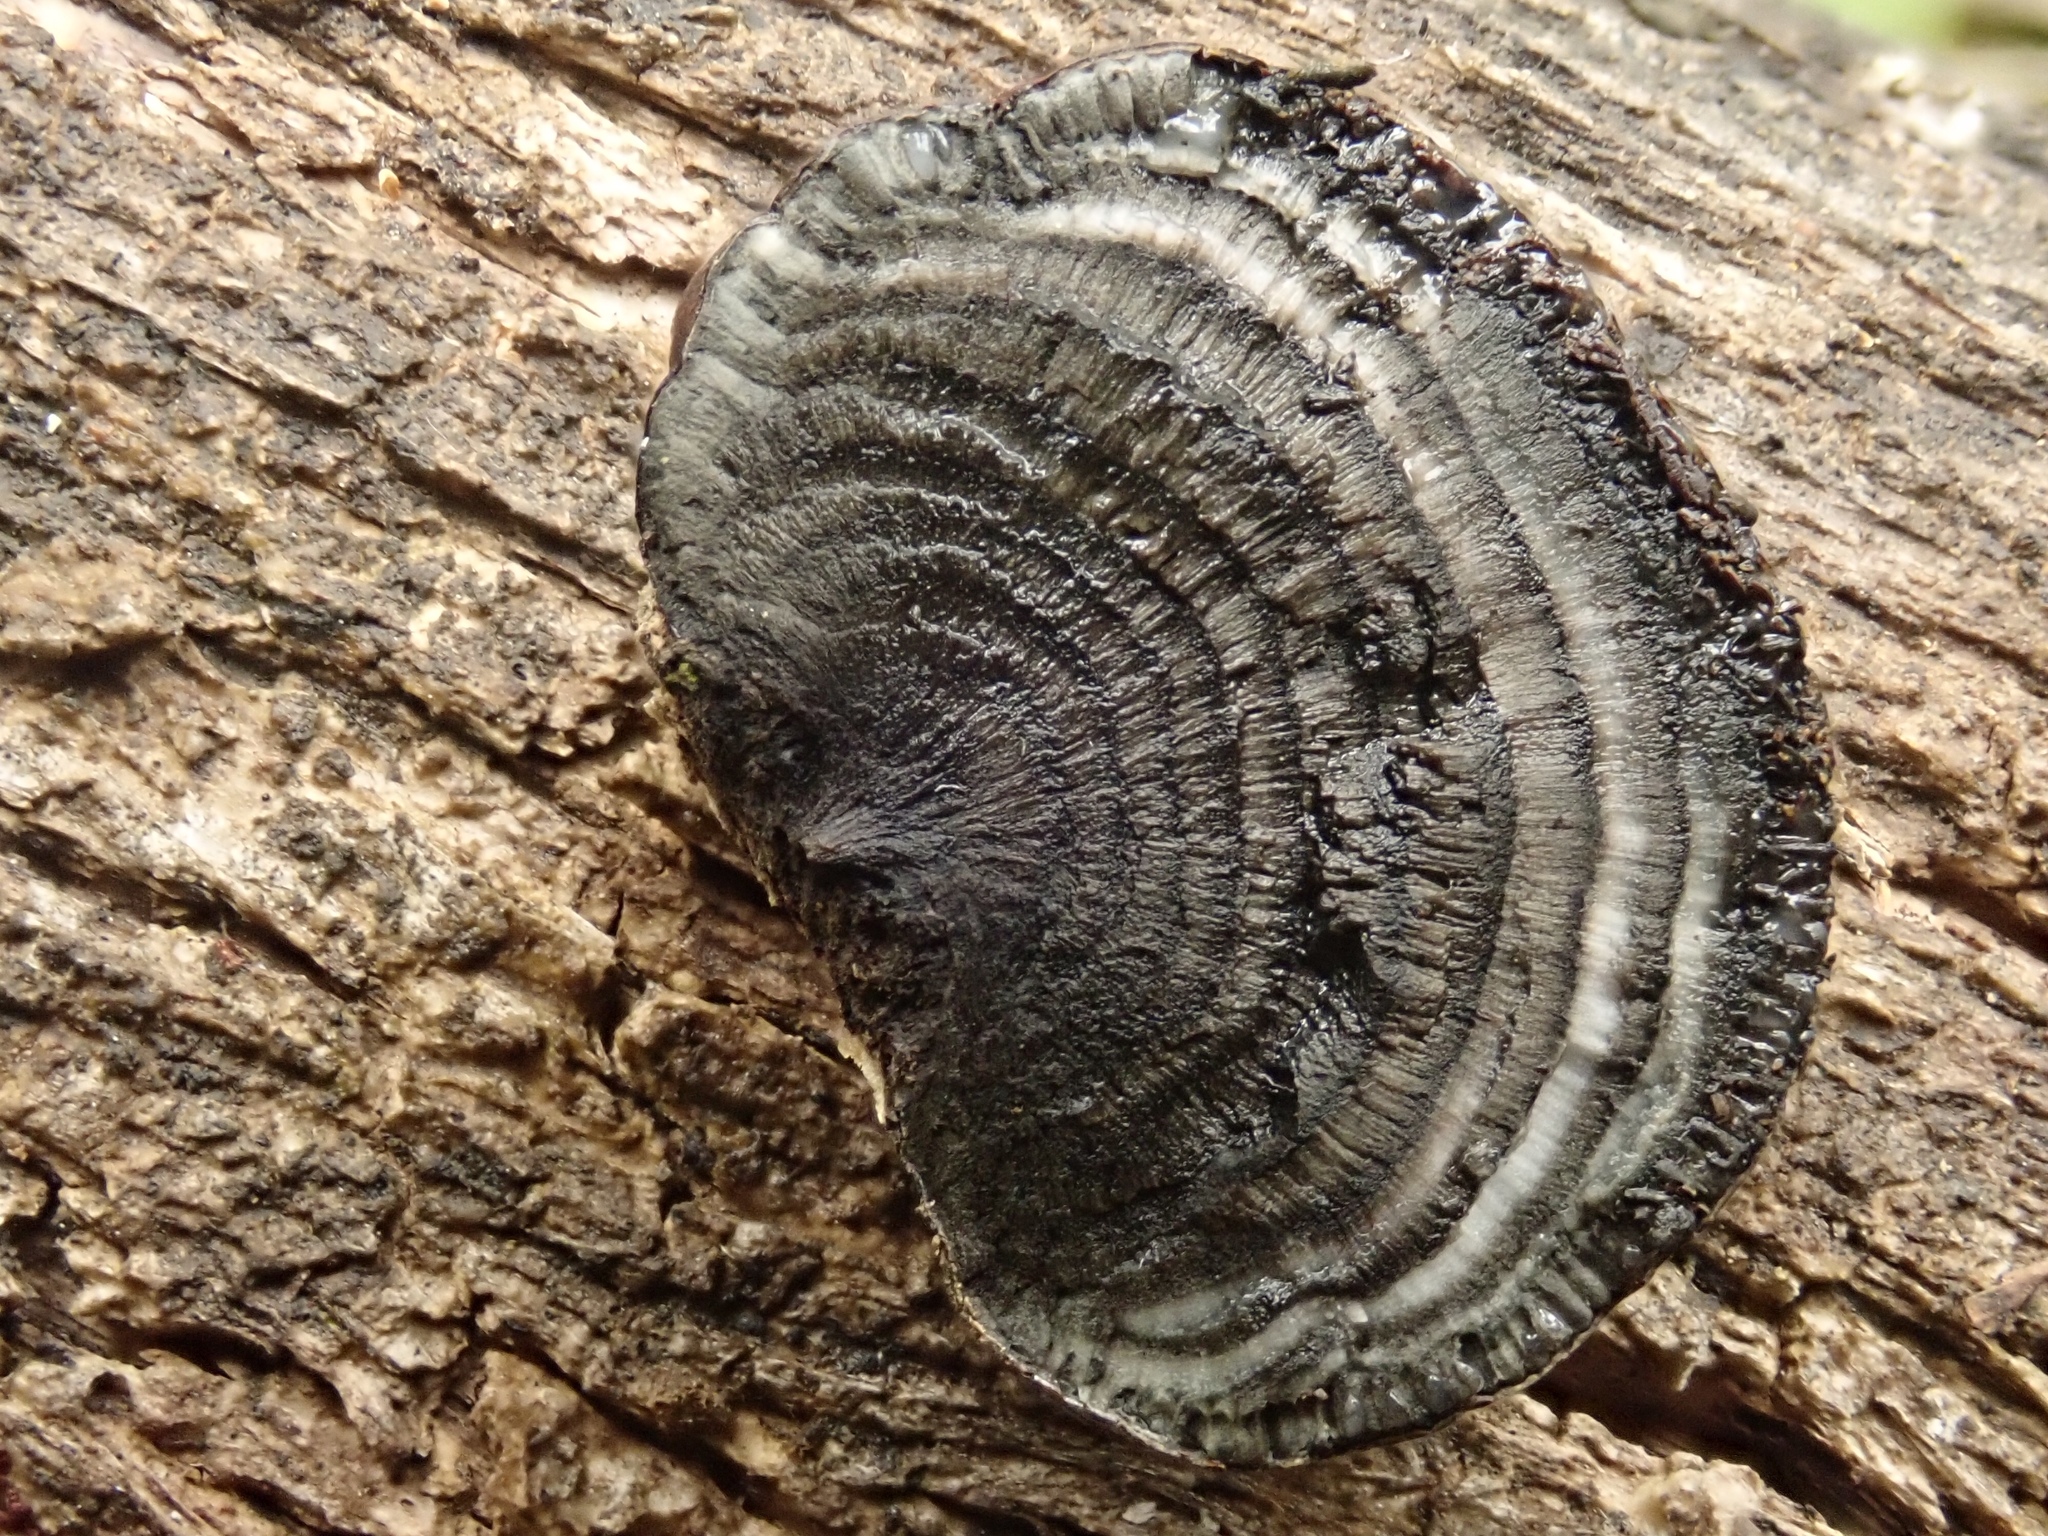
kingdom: Fungi
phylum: Ascomycota
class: Sordariomycetes
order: Xylariales
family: Hypoxylaceae
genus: Daldinia
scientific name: Daldinia grandis
